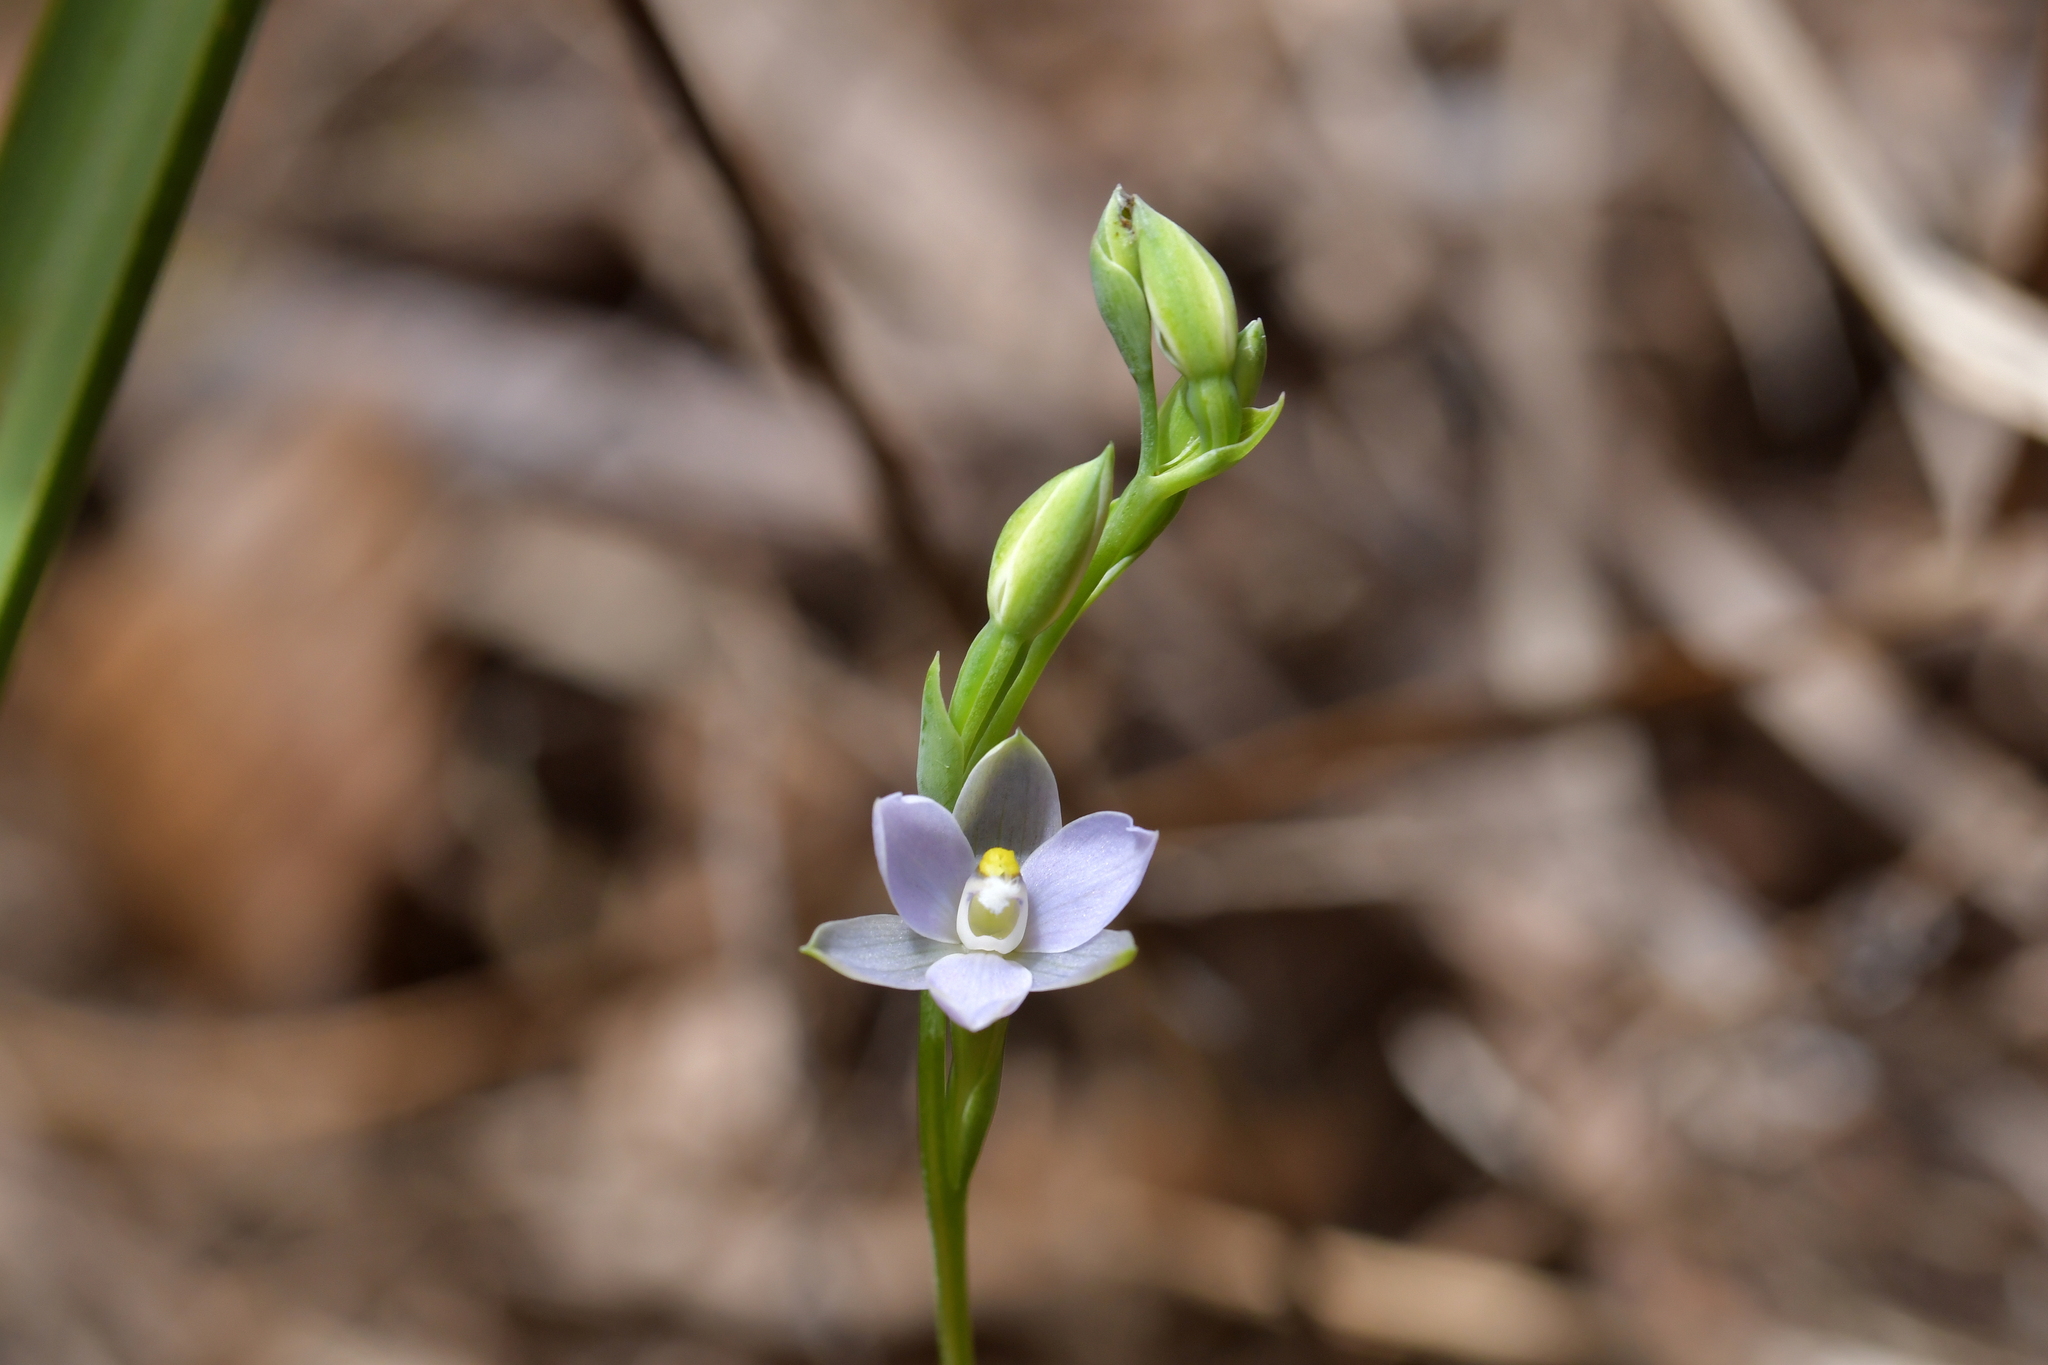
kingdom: Plantae
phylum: Tracheophyta
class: Liliopsida
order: Asparagales
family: Orchidaceae
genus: Thelymitra
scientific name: Thelymitra tholiformis
